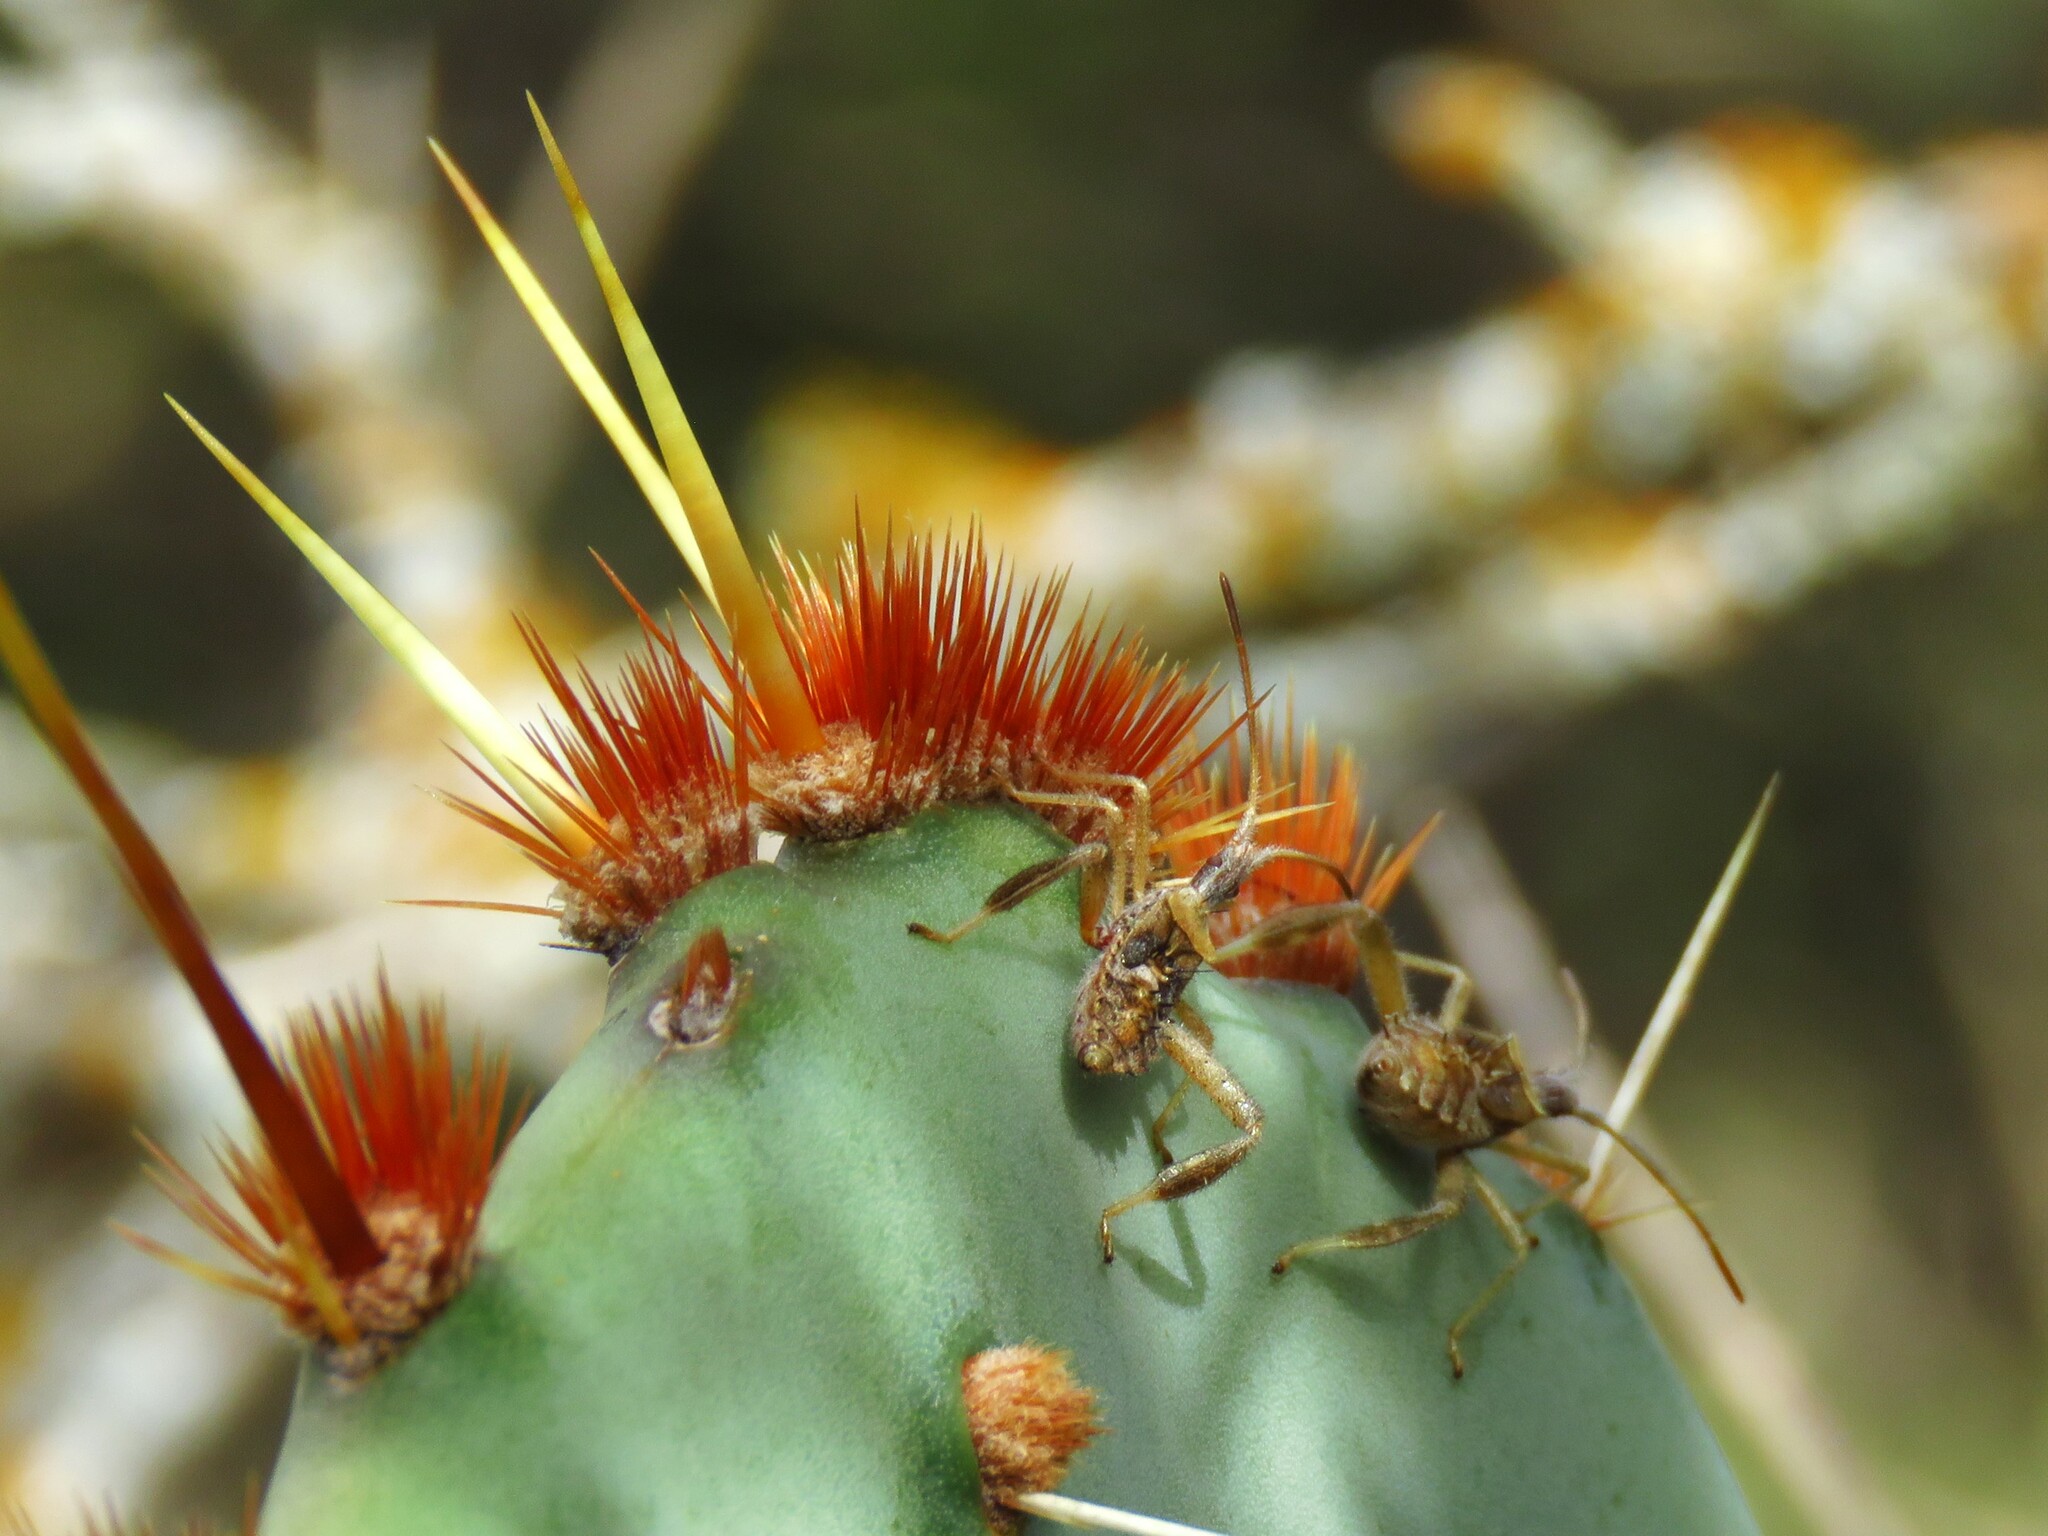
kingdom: Animalia
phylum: Arthropoda
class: Insecta
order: Hemiptera
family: Coreidae
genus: Narnia
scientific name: Narnia femorata
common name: Leaf-footed cactus bug
